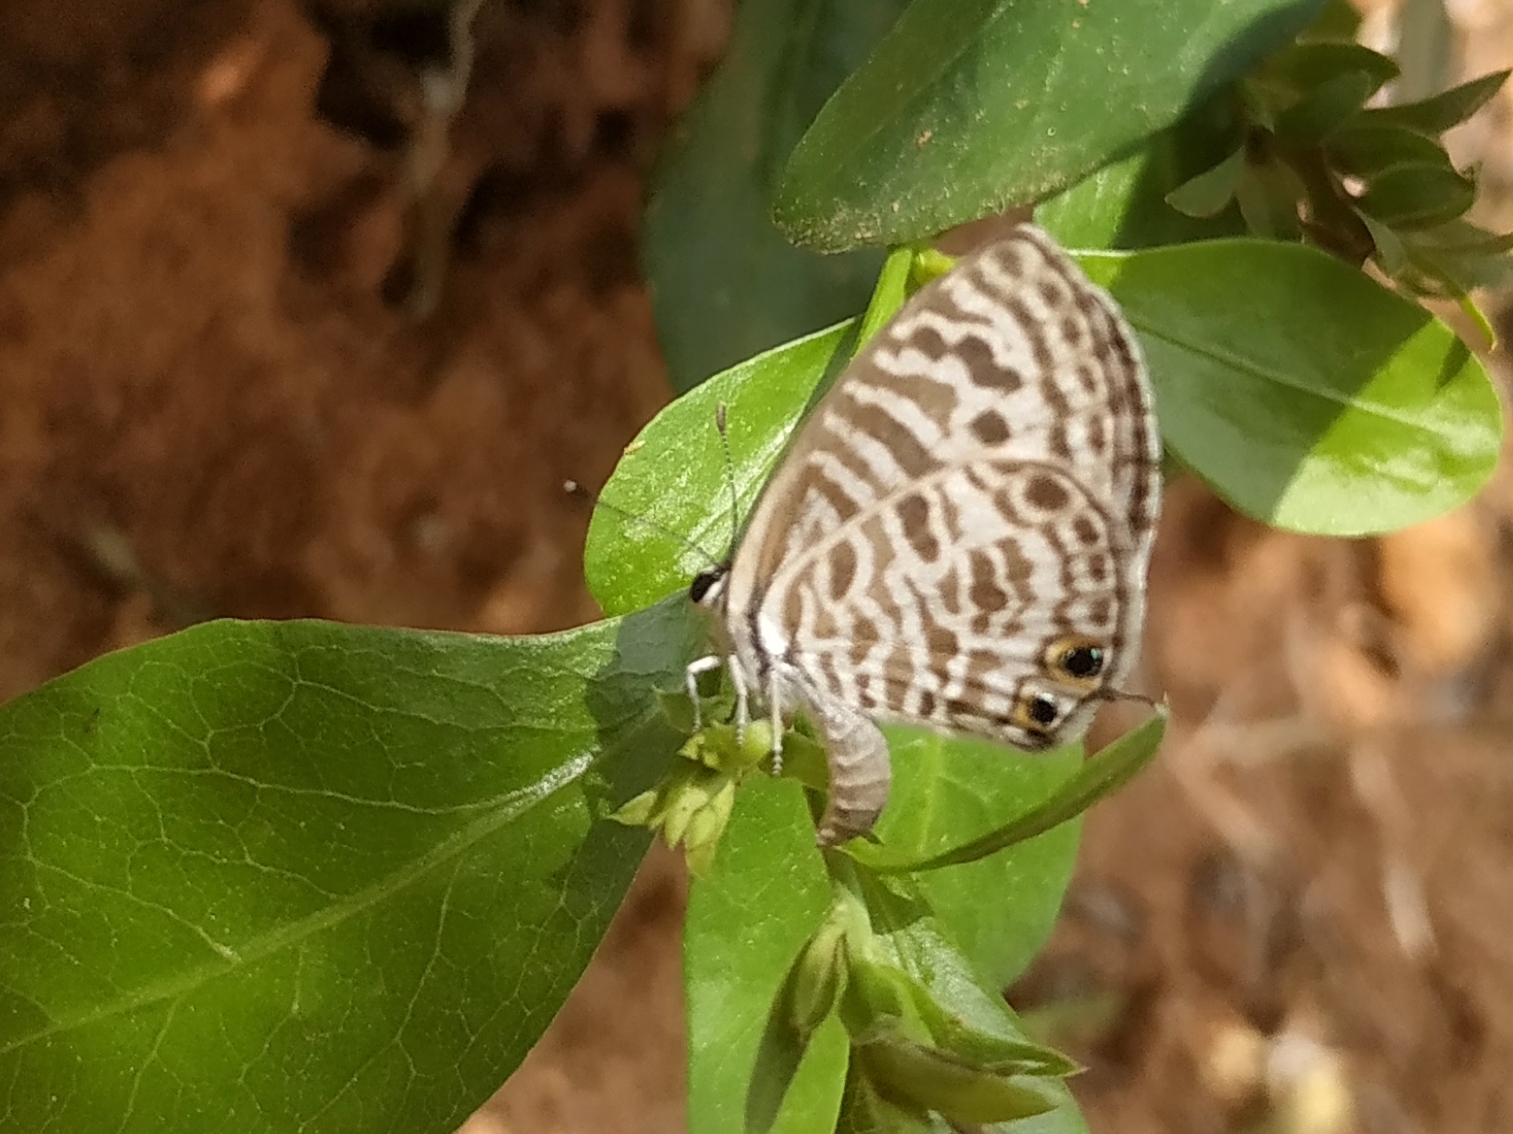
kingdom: Animalia
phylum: Arthropoda
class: Insecta
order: Lepidoptera
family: Lycaenidae
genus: Leptotes
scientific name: Leptotes plinius
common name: Zebra blue
